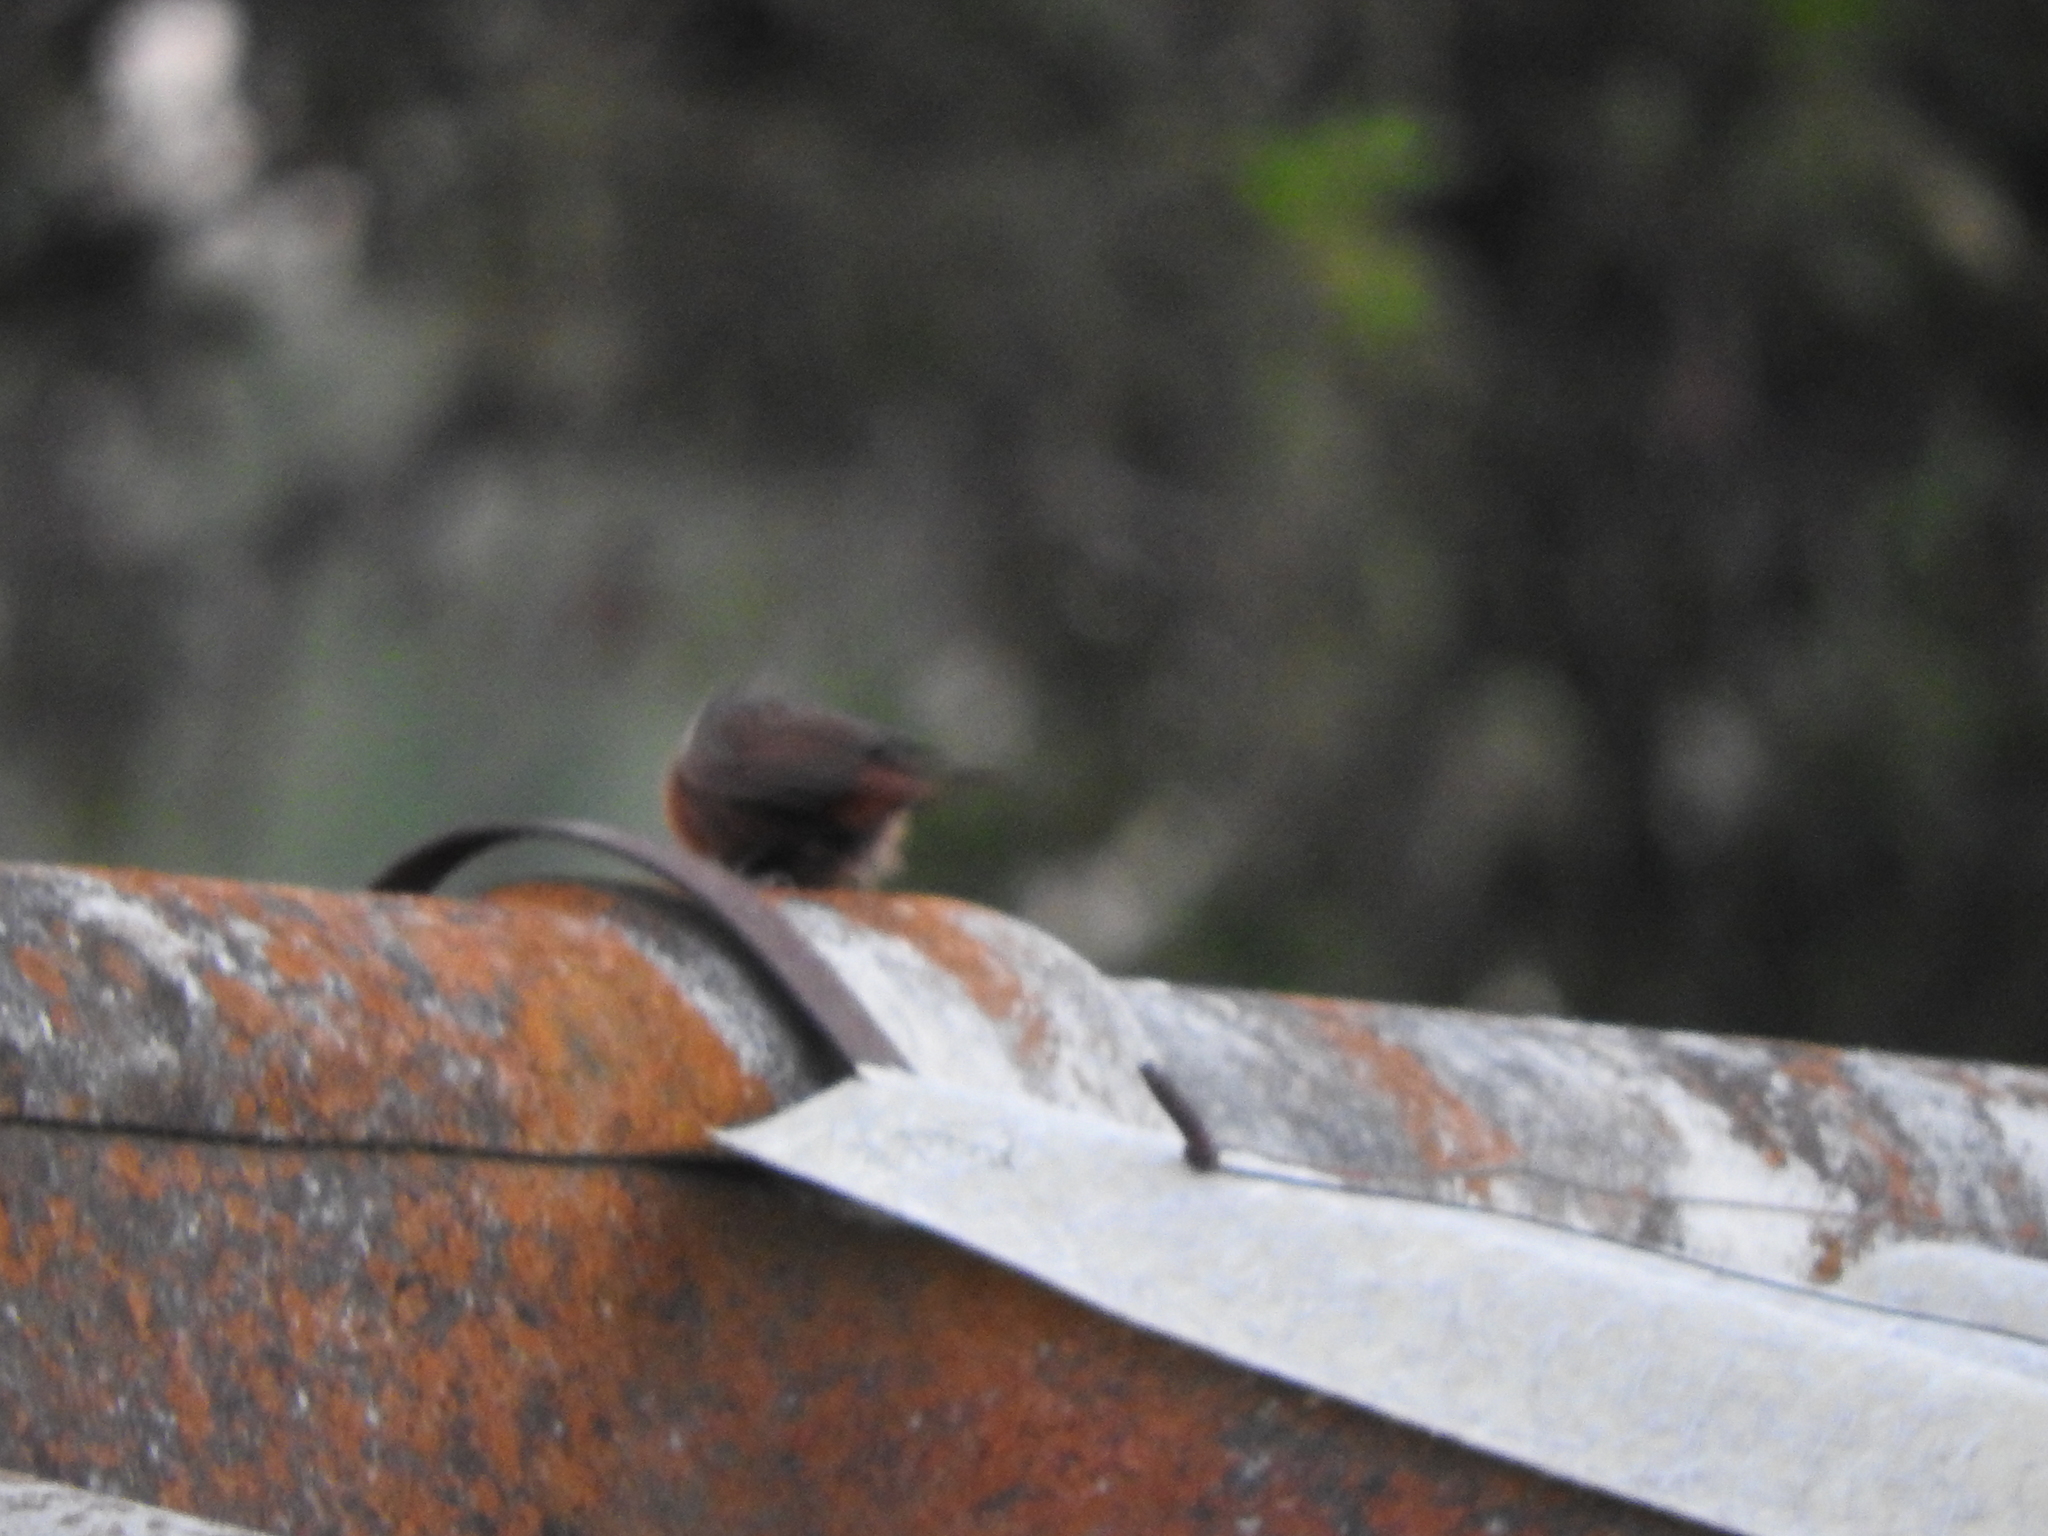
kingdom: Animalia
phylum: Chordata
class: Aves
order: Passeriformes
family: Troglodytidae
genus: Catherpes
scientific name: Catherpes mexicanus
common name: Canyon wren
